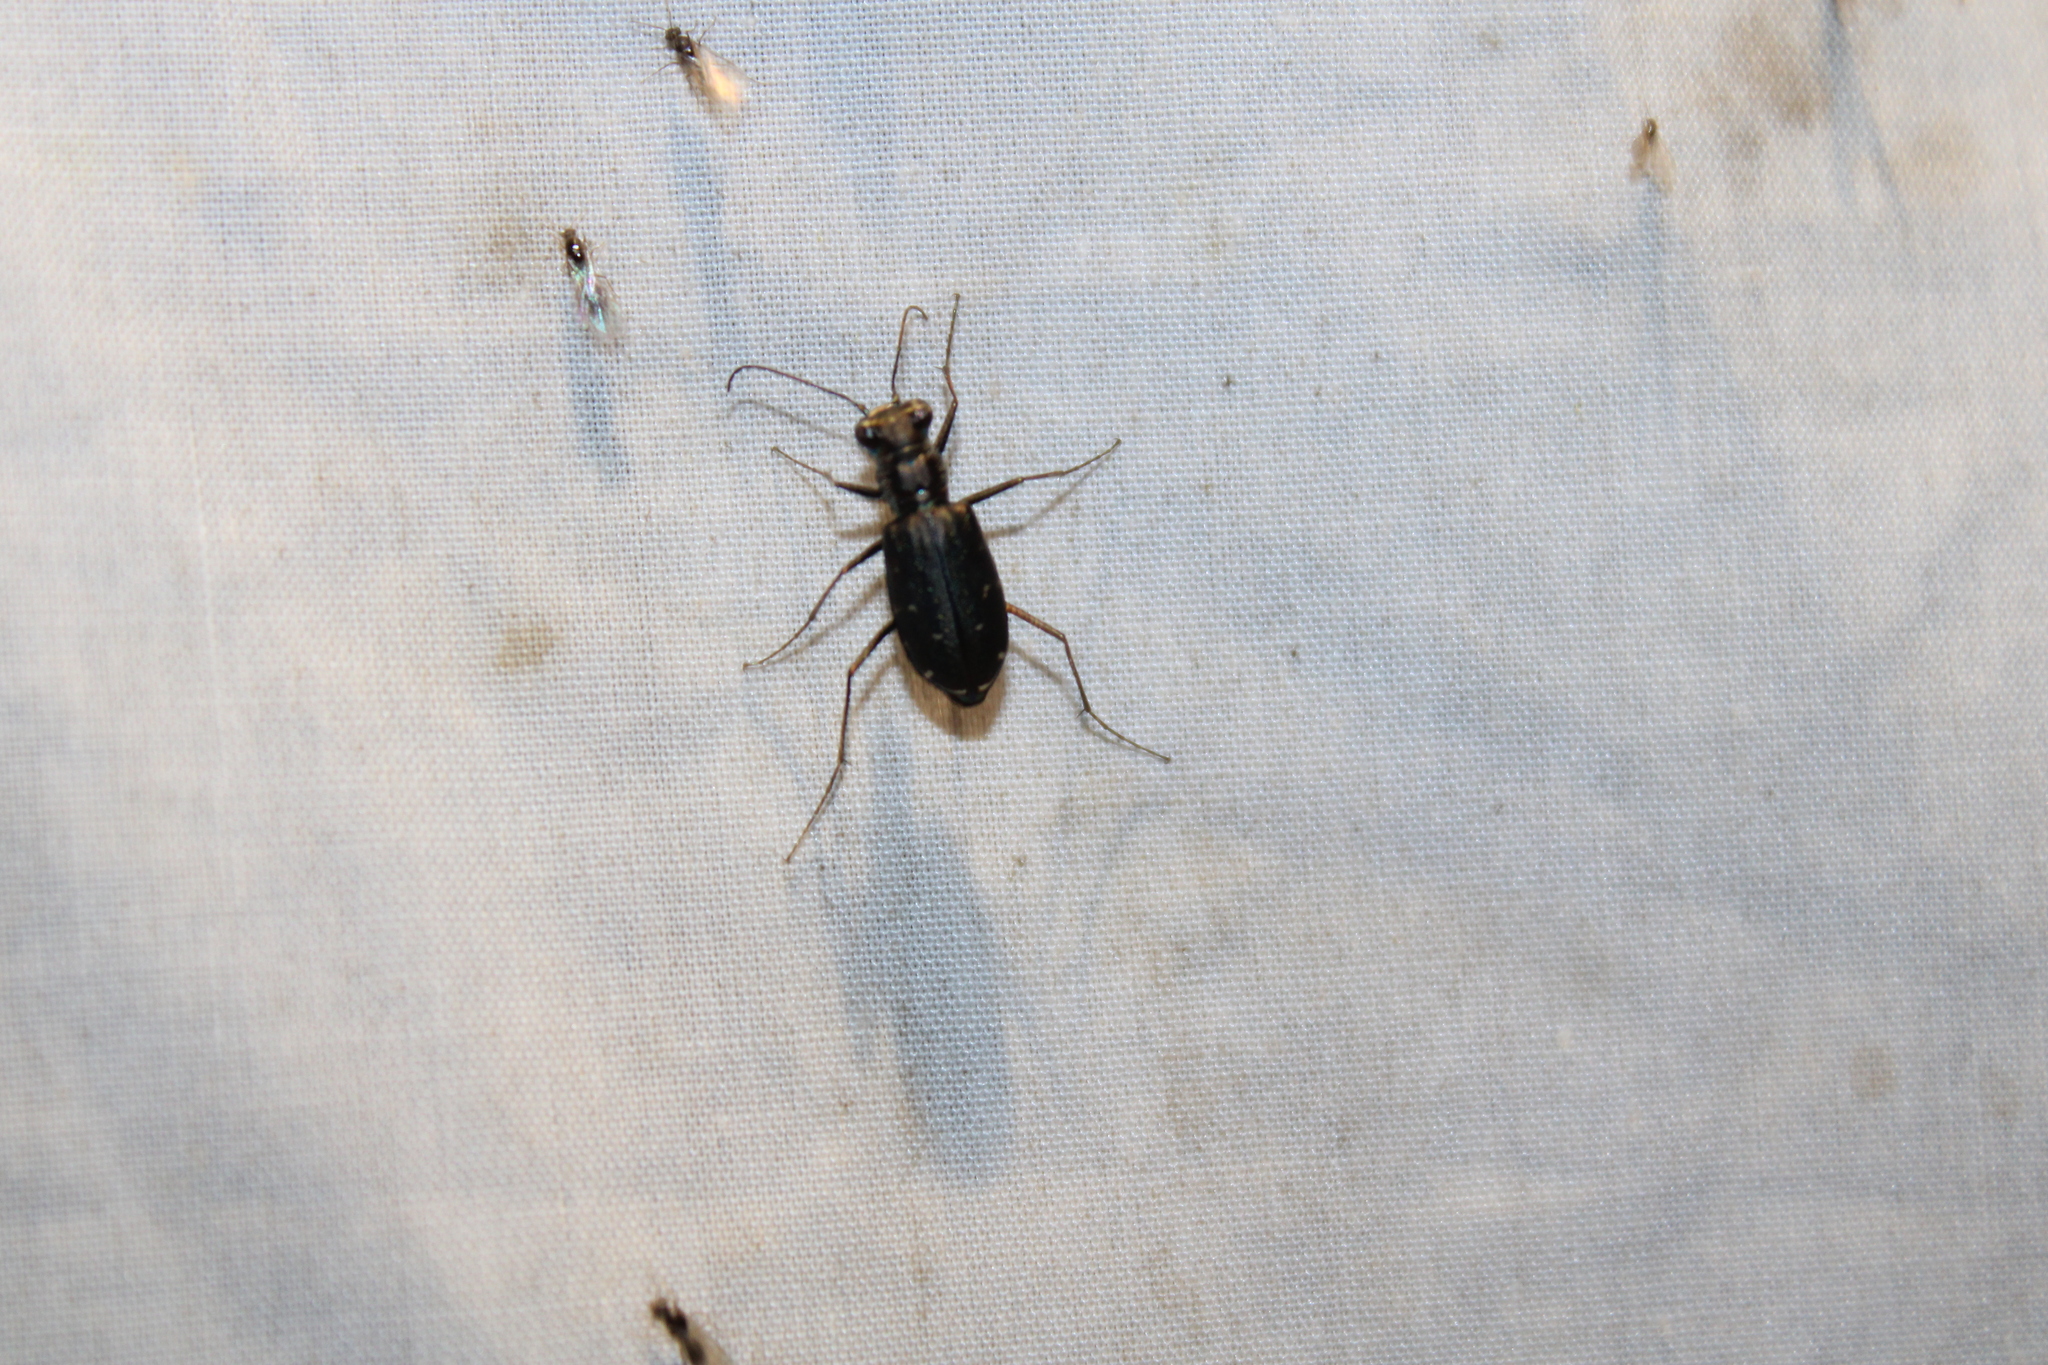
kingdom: Animalia
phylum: Arthropoda
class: Insecta
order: Coleoptera
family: Carabidae
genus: Cicindela
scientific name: Cicindela punctulata
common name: Punctured tiger beetle
